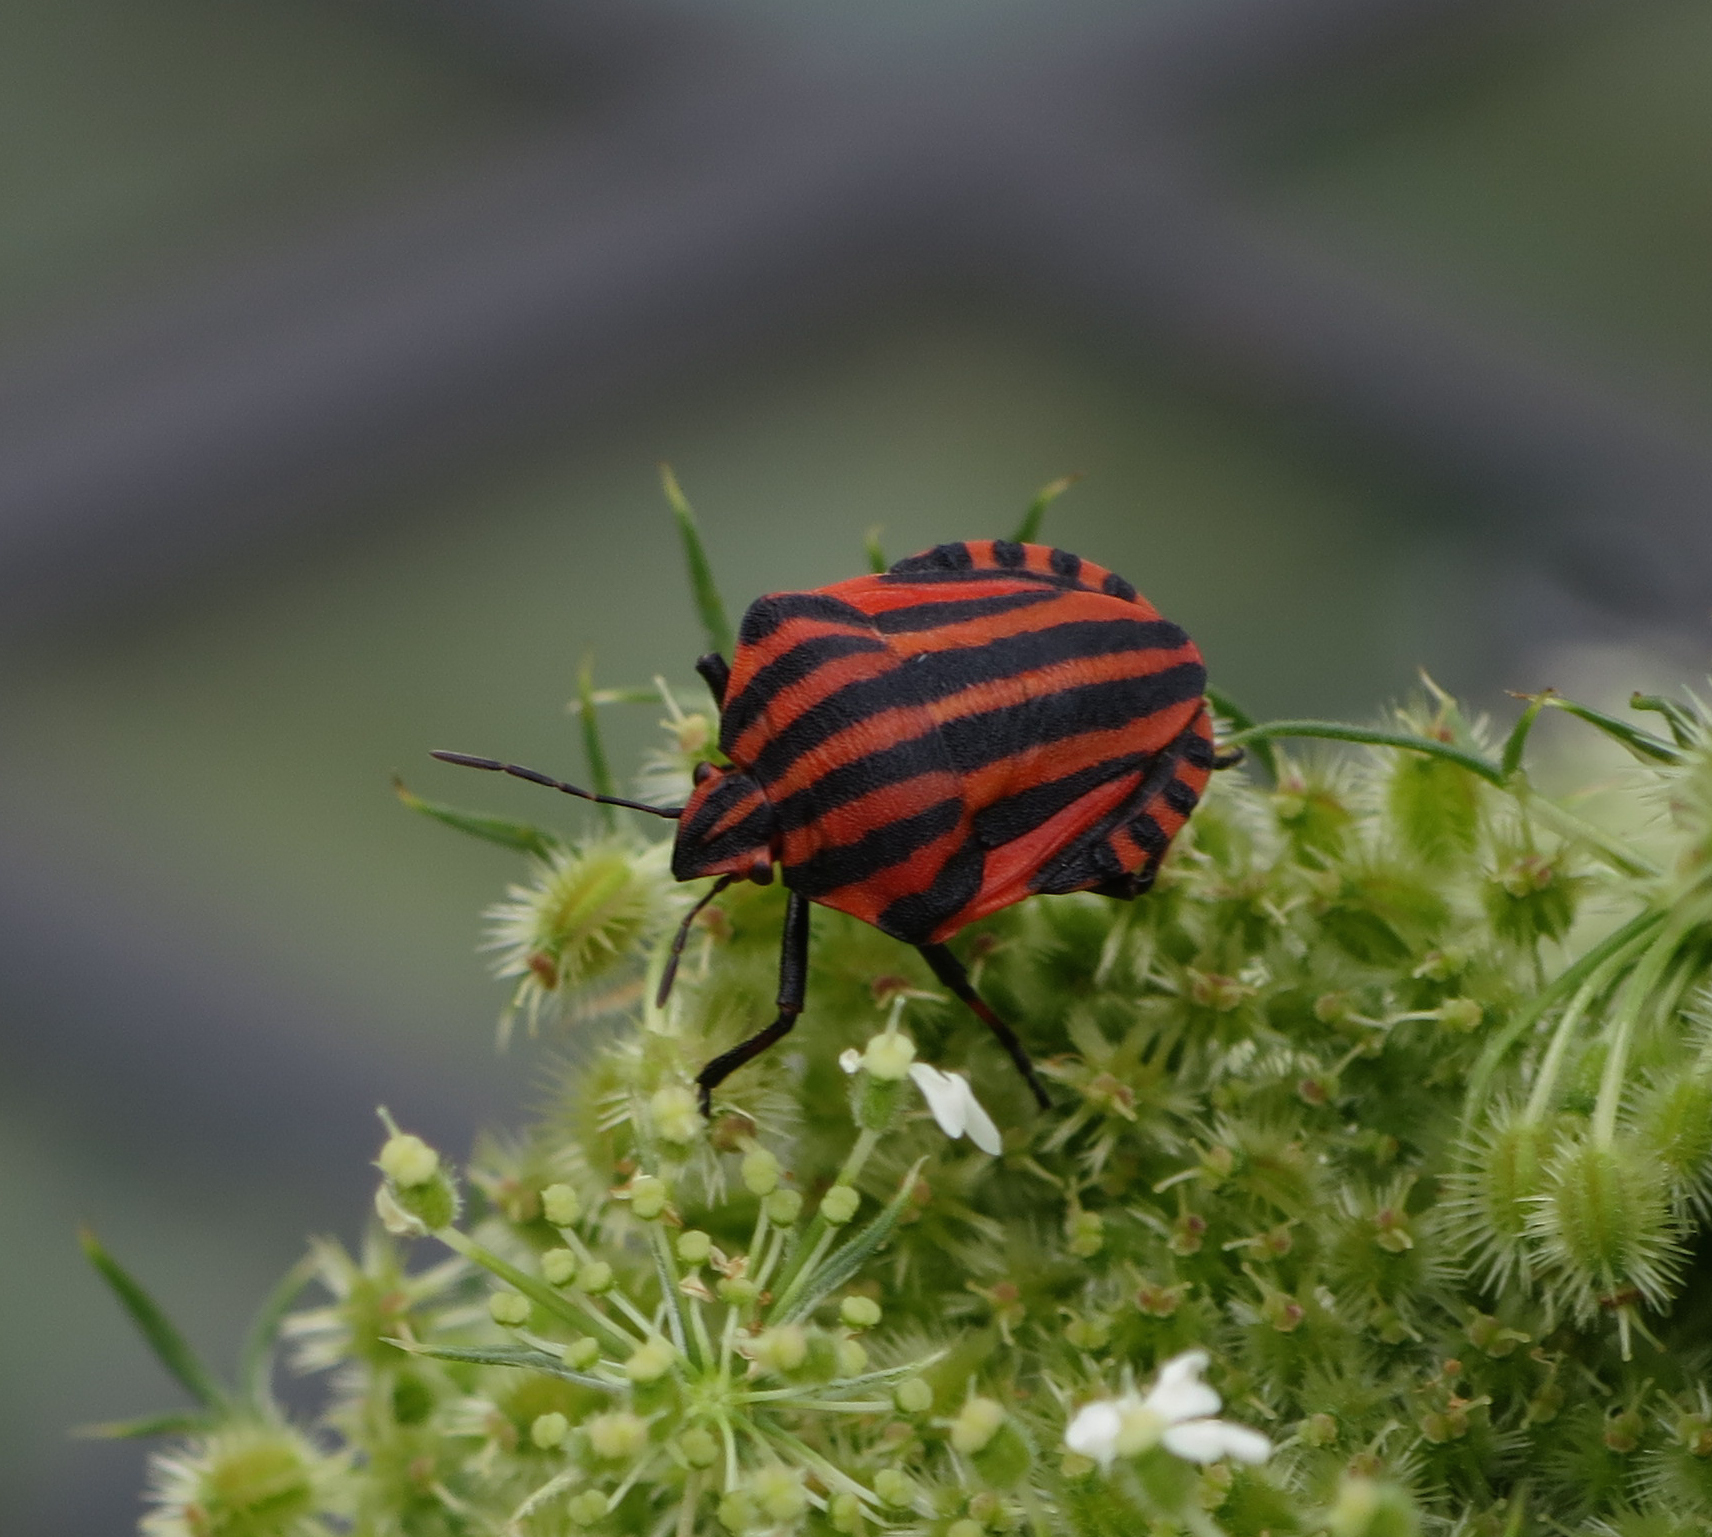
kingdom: Animalia
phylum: Arthropoda
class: Insecta
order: Hemiptera
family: Pentatomidae
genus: Graphosoma
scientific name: Graphosoma italicum
